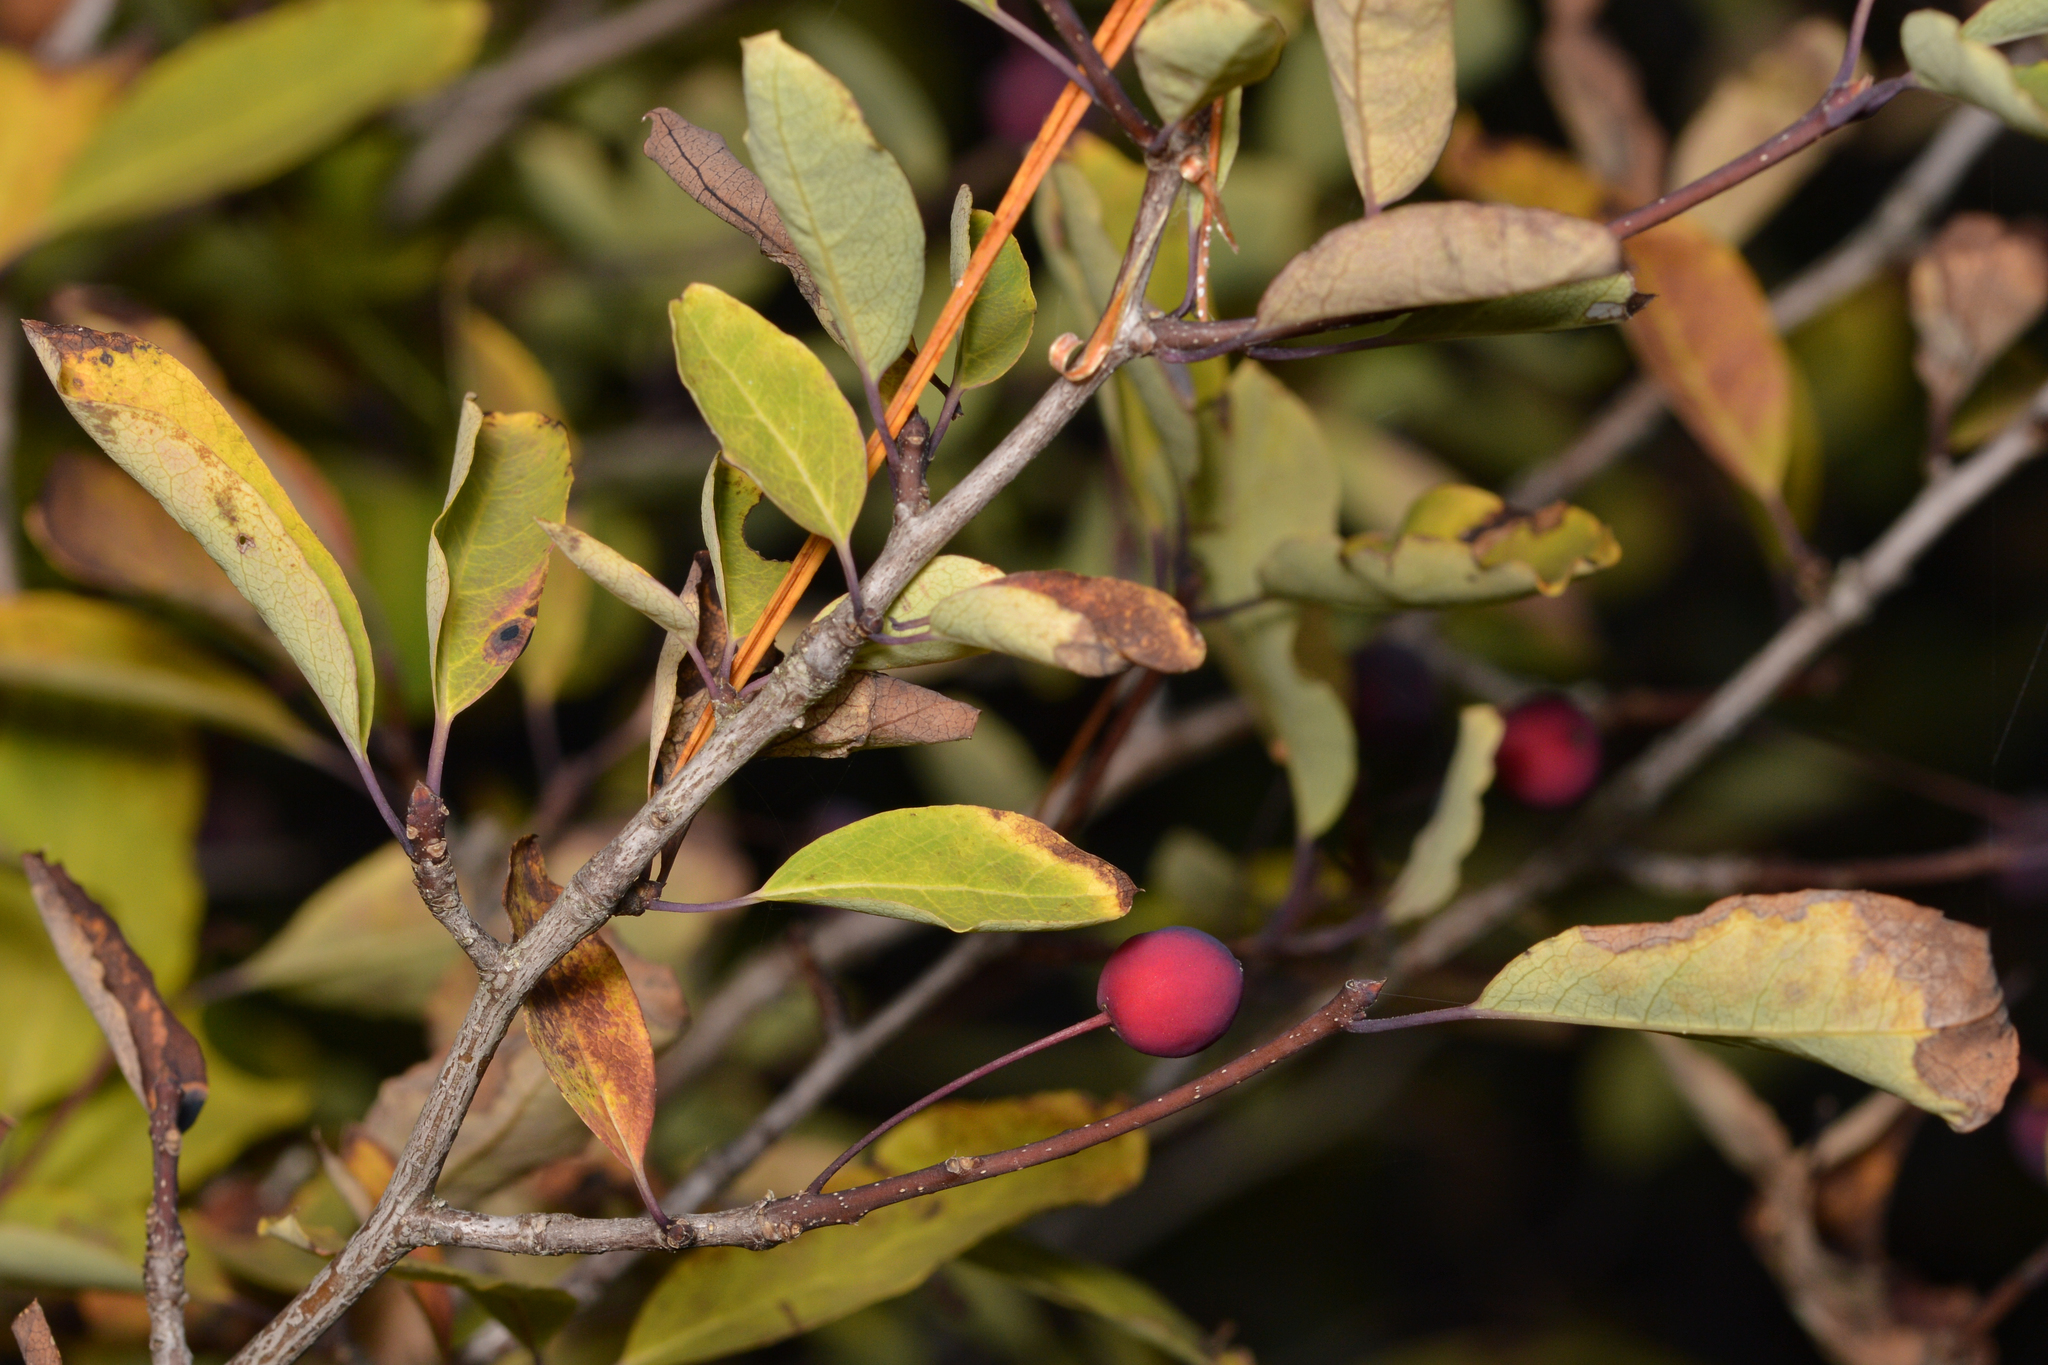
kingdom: Plantae
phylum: Tracheophyta
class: Magnoliopsida
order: Aquifoliales
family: Aquifoliaceae
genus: Ilex
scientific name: Ilex mucronata
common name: Catberry
